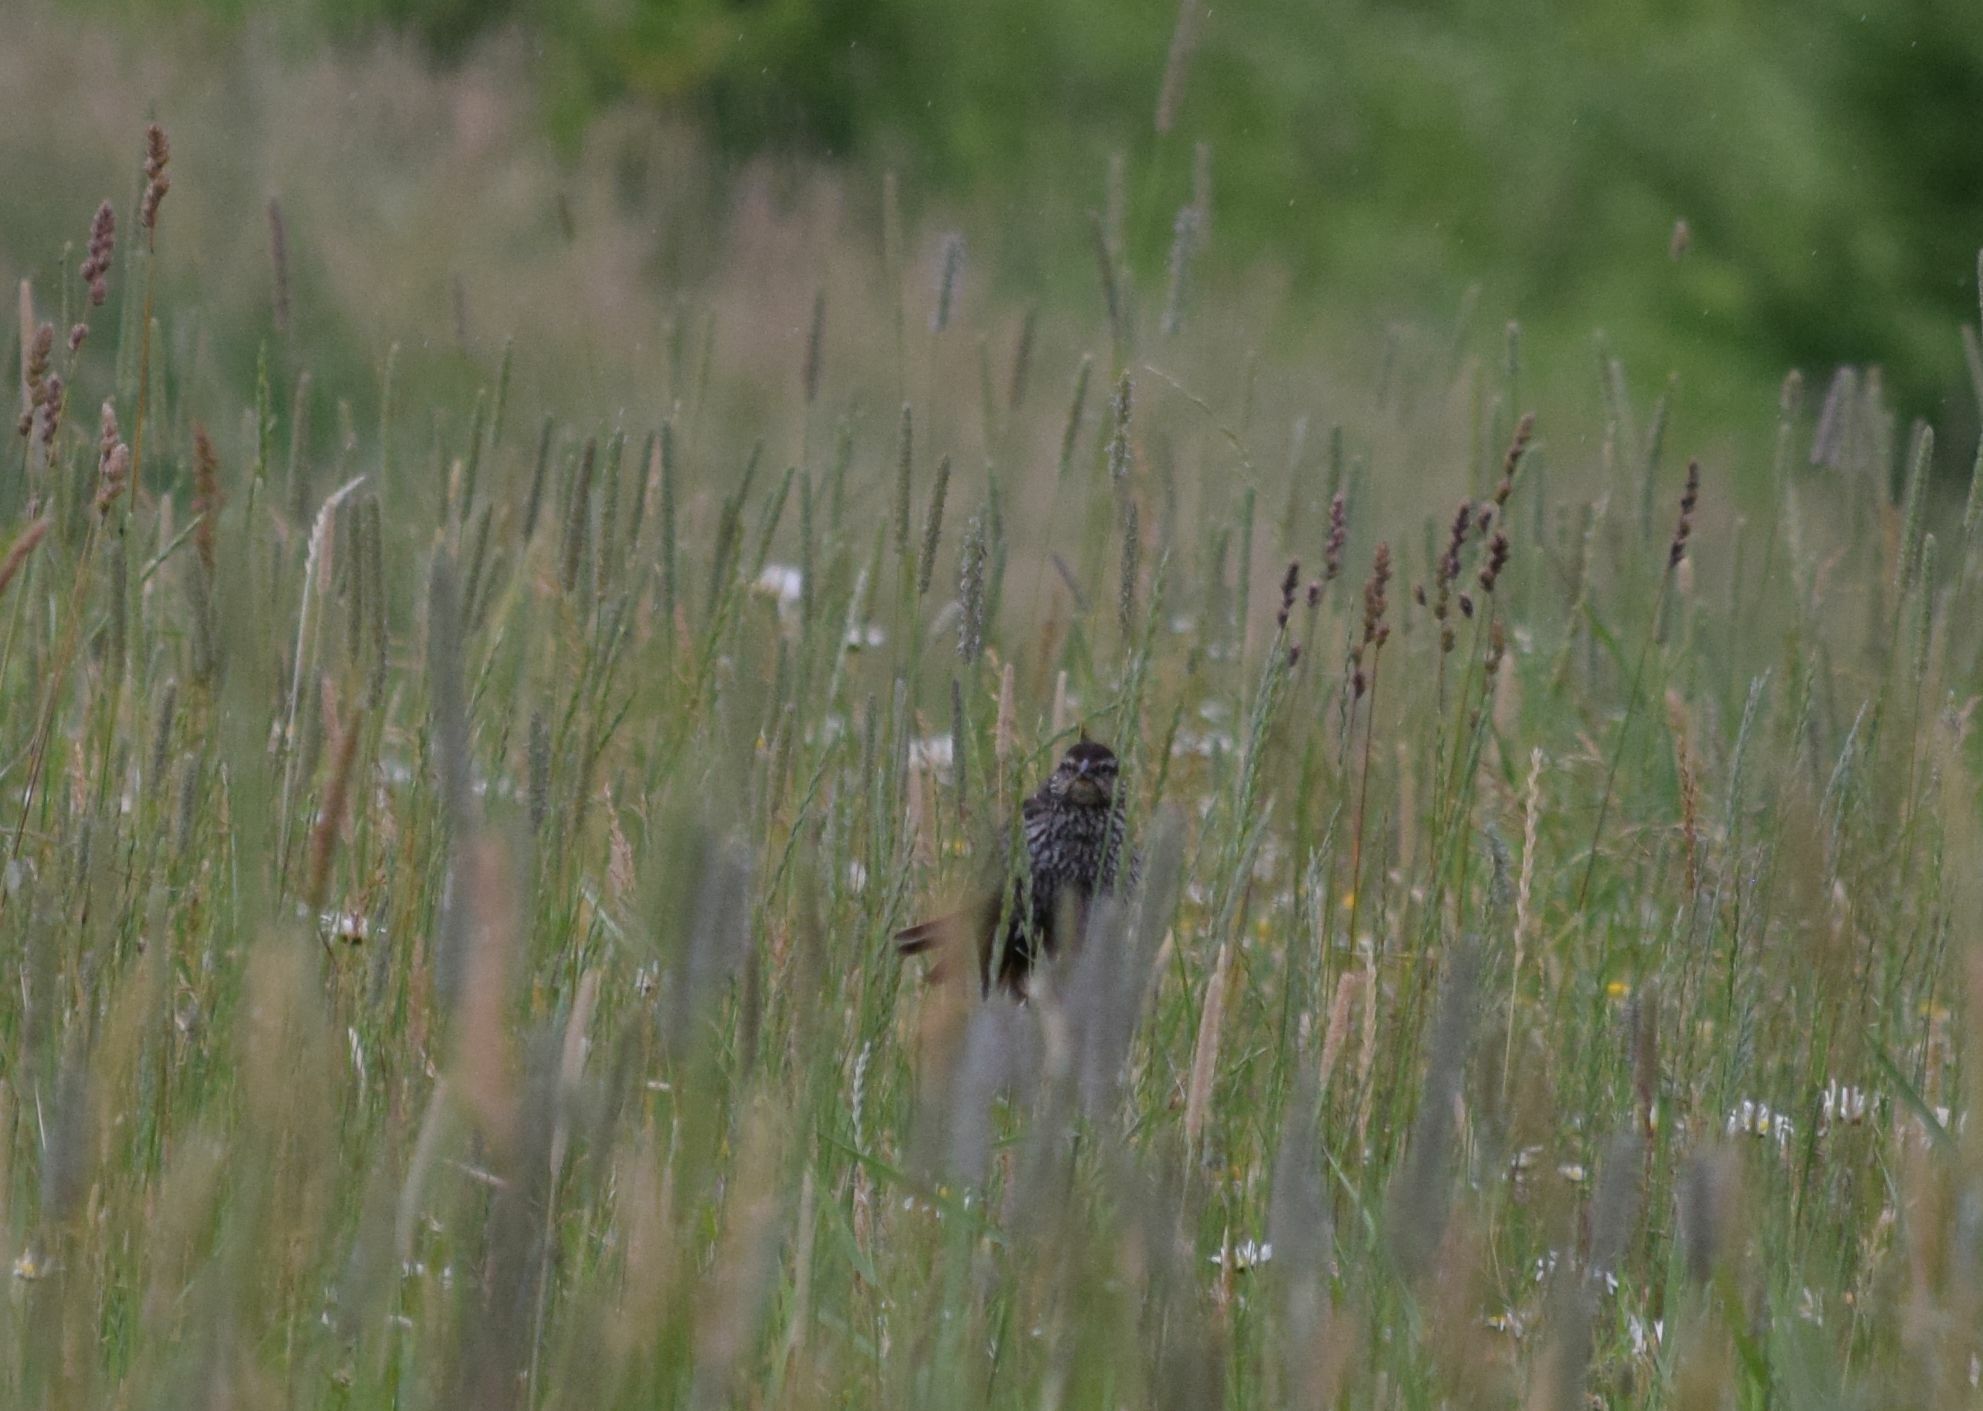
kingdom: Animalia
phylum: Chordata
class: Aves
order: Passeriformes
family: Icteridae
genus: Agelaius
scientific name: Agelaius phoeniceus
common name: Red-winged blackbird
